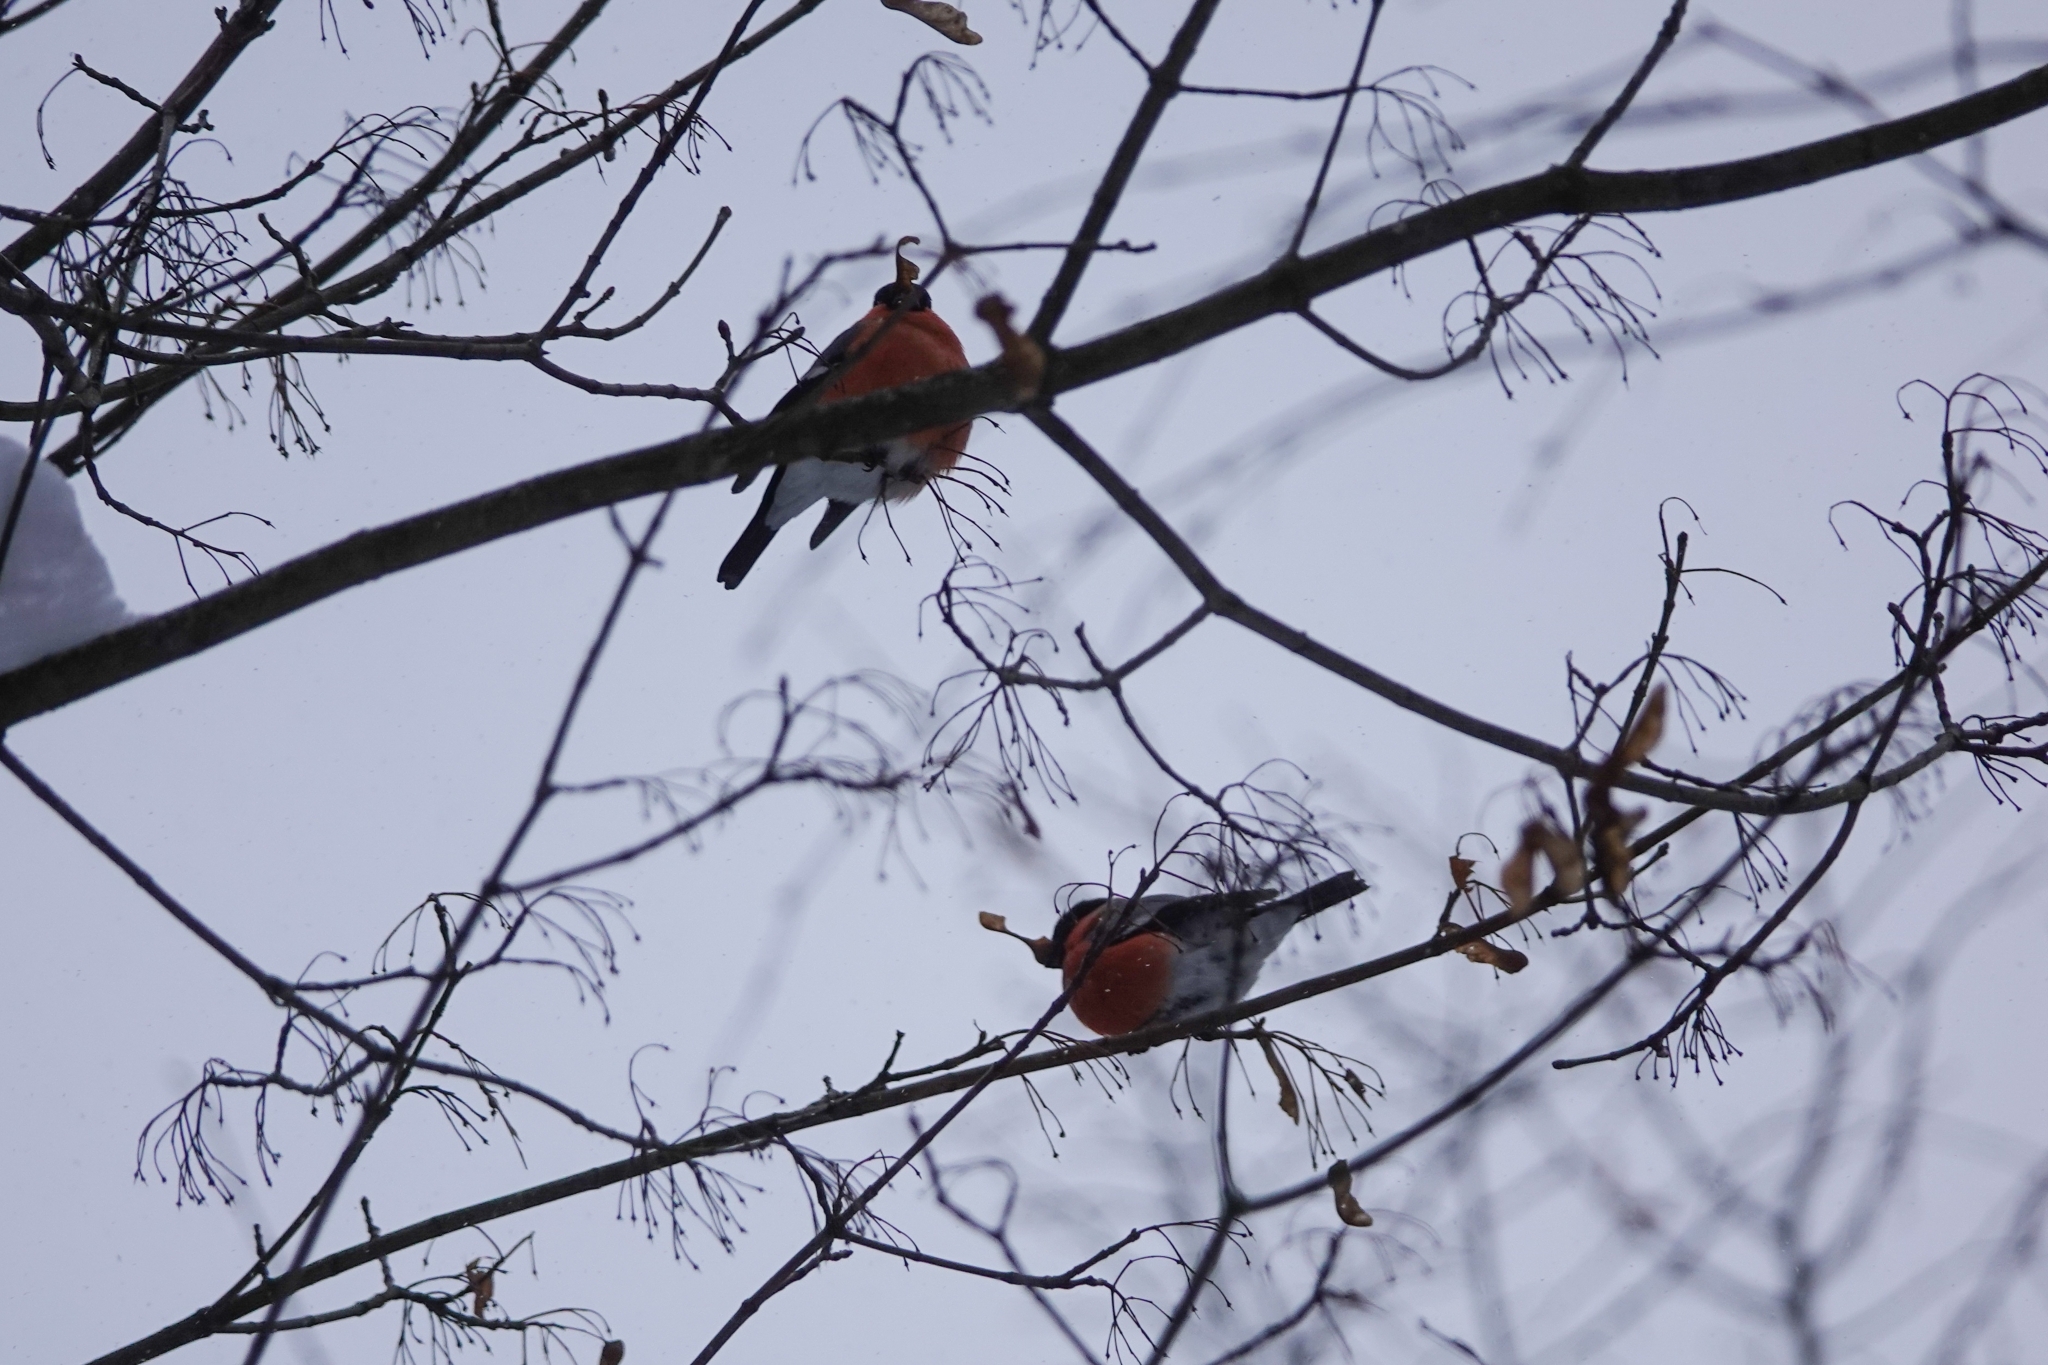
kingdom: Animalia
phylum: Chordata
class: Aves
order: Passeriformes
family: Fringillidae
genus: Pyrrhula
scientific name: Pyrrhula pyrrhula
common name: Eurasian bullfinch
